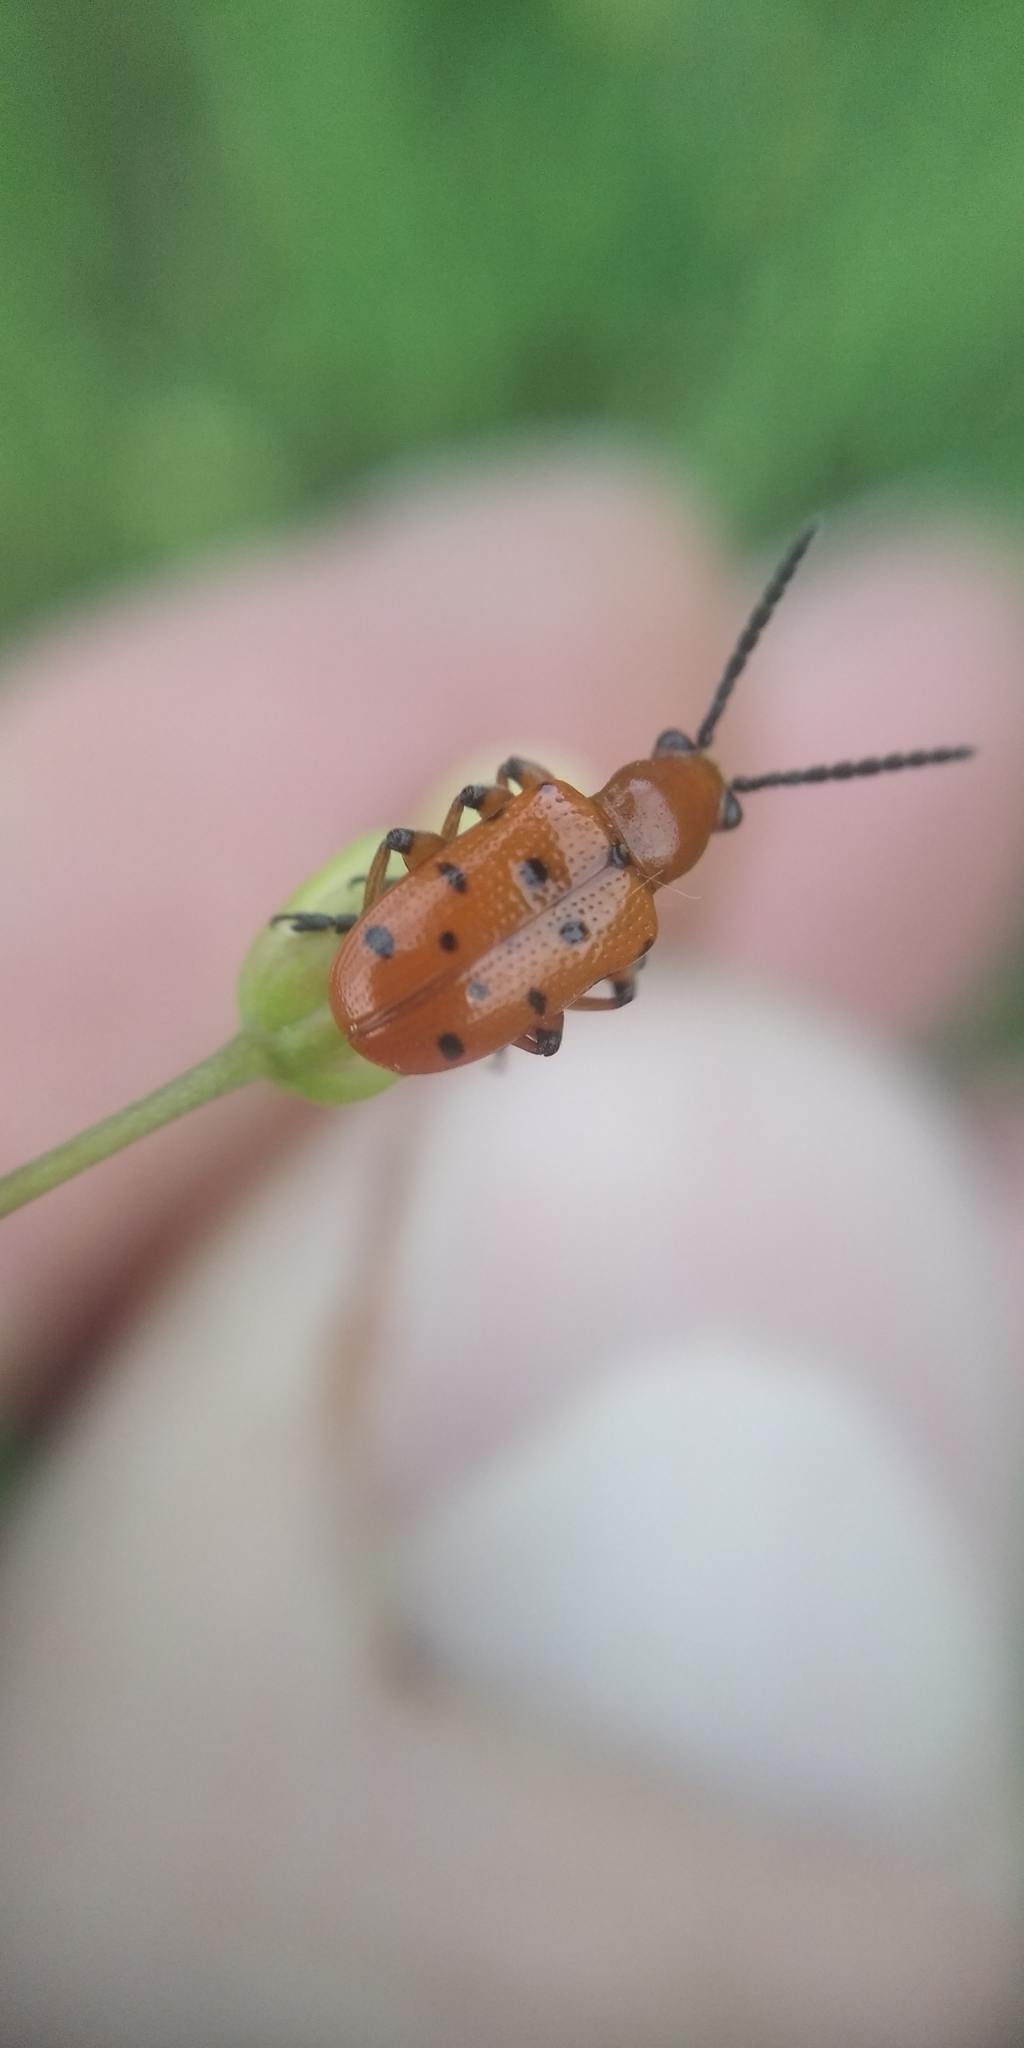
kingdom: Animalia
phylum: Arthropoda
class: Insecta
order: Coleoptera
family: Chrysomelidae
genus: Crioceris
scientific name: Crioceris duodecimpunctata
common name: Twelve-spotted asparagus beetle
